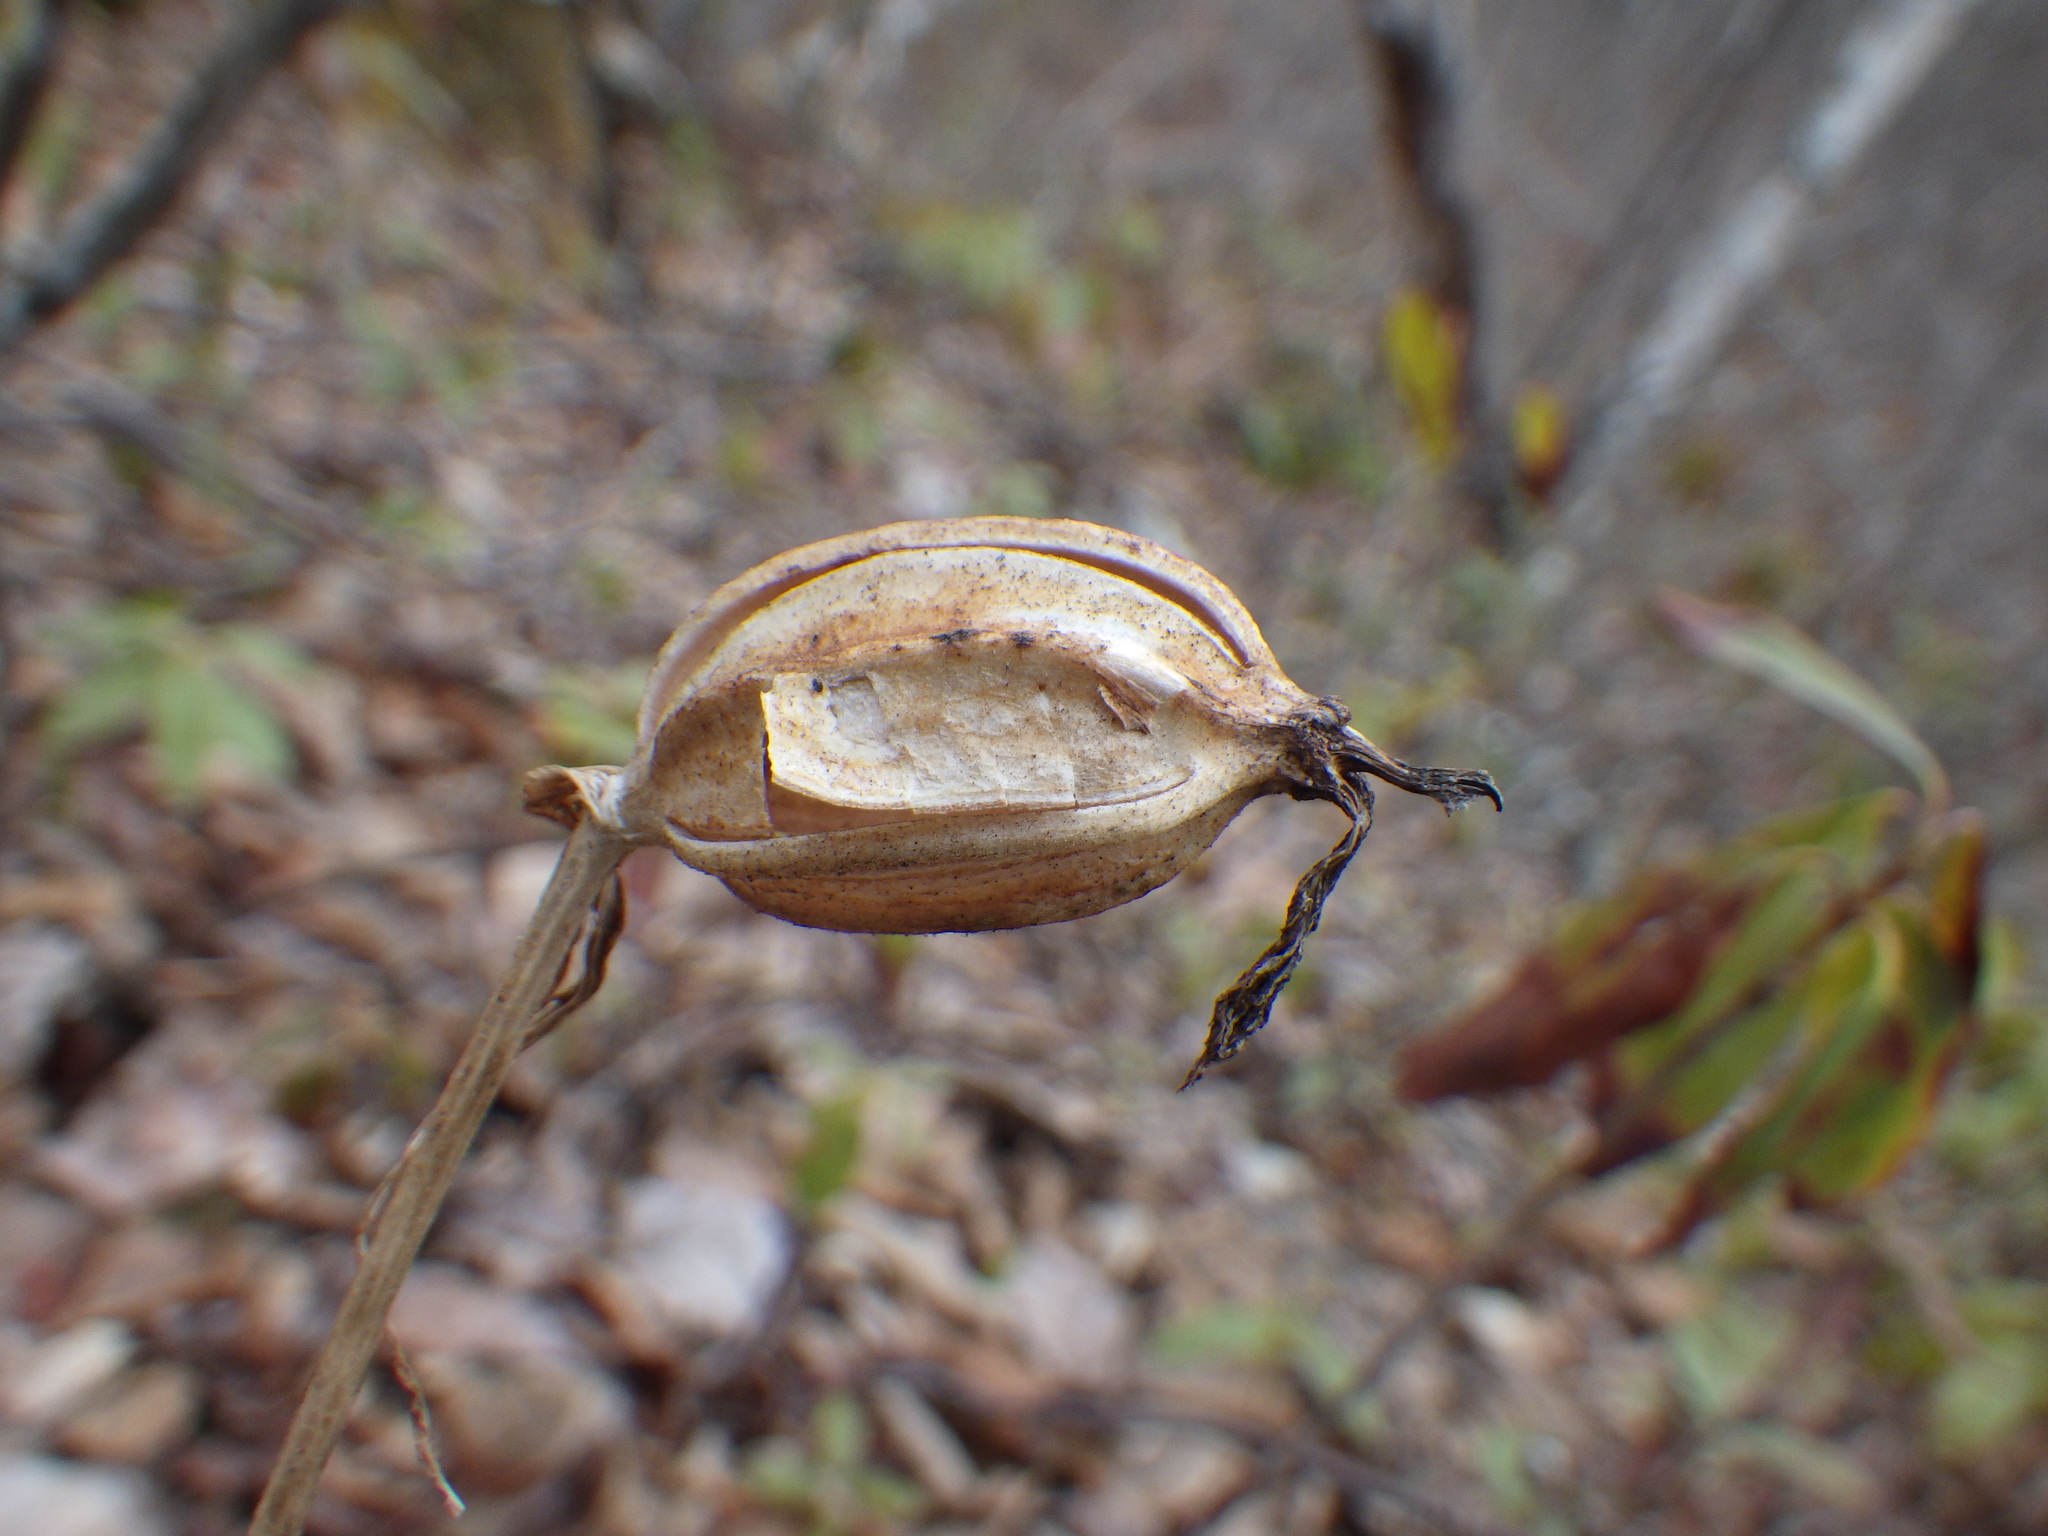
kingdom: Plantae
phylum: Tracheophyta
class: Liliopsida
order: Asparagales
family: Orchidaceae
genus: Cypripedium
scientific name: Cypripedium acaule
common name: Pink lady's-slipper
